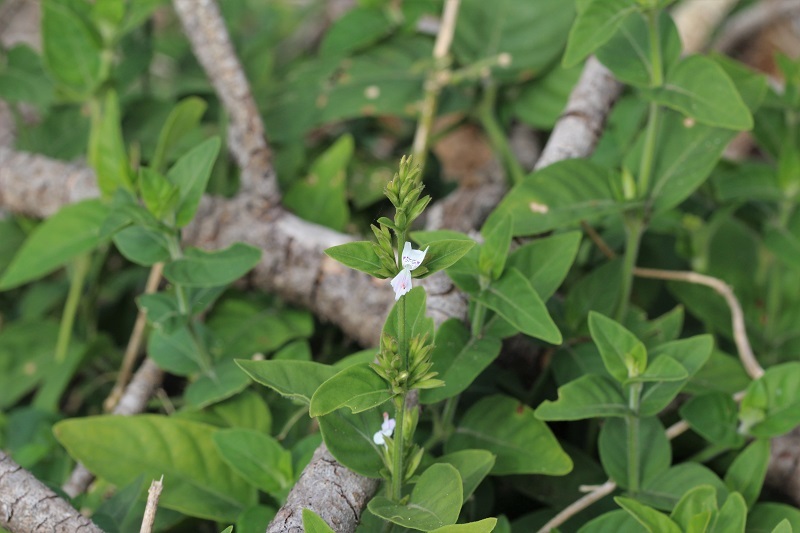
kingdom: Plantae
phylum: Tracheophyta
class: Magnoliopsida
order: Lamiales
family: Acanthaceae
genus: Hypoestes
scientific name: Hypoestes forskaolii
